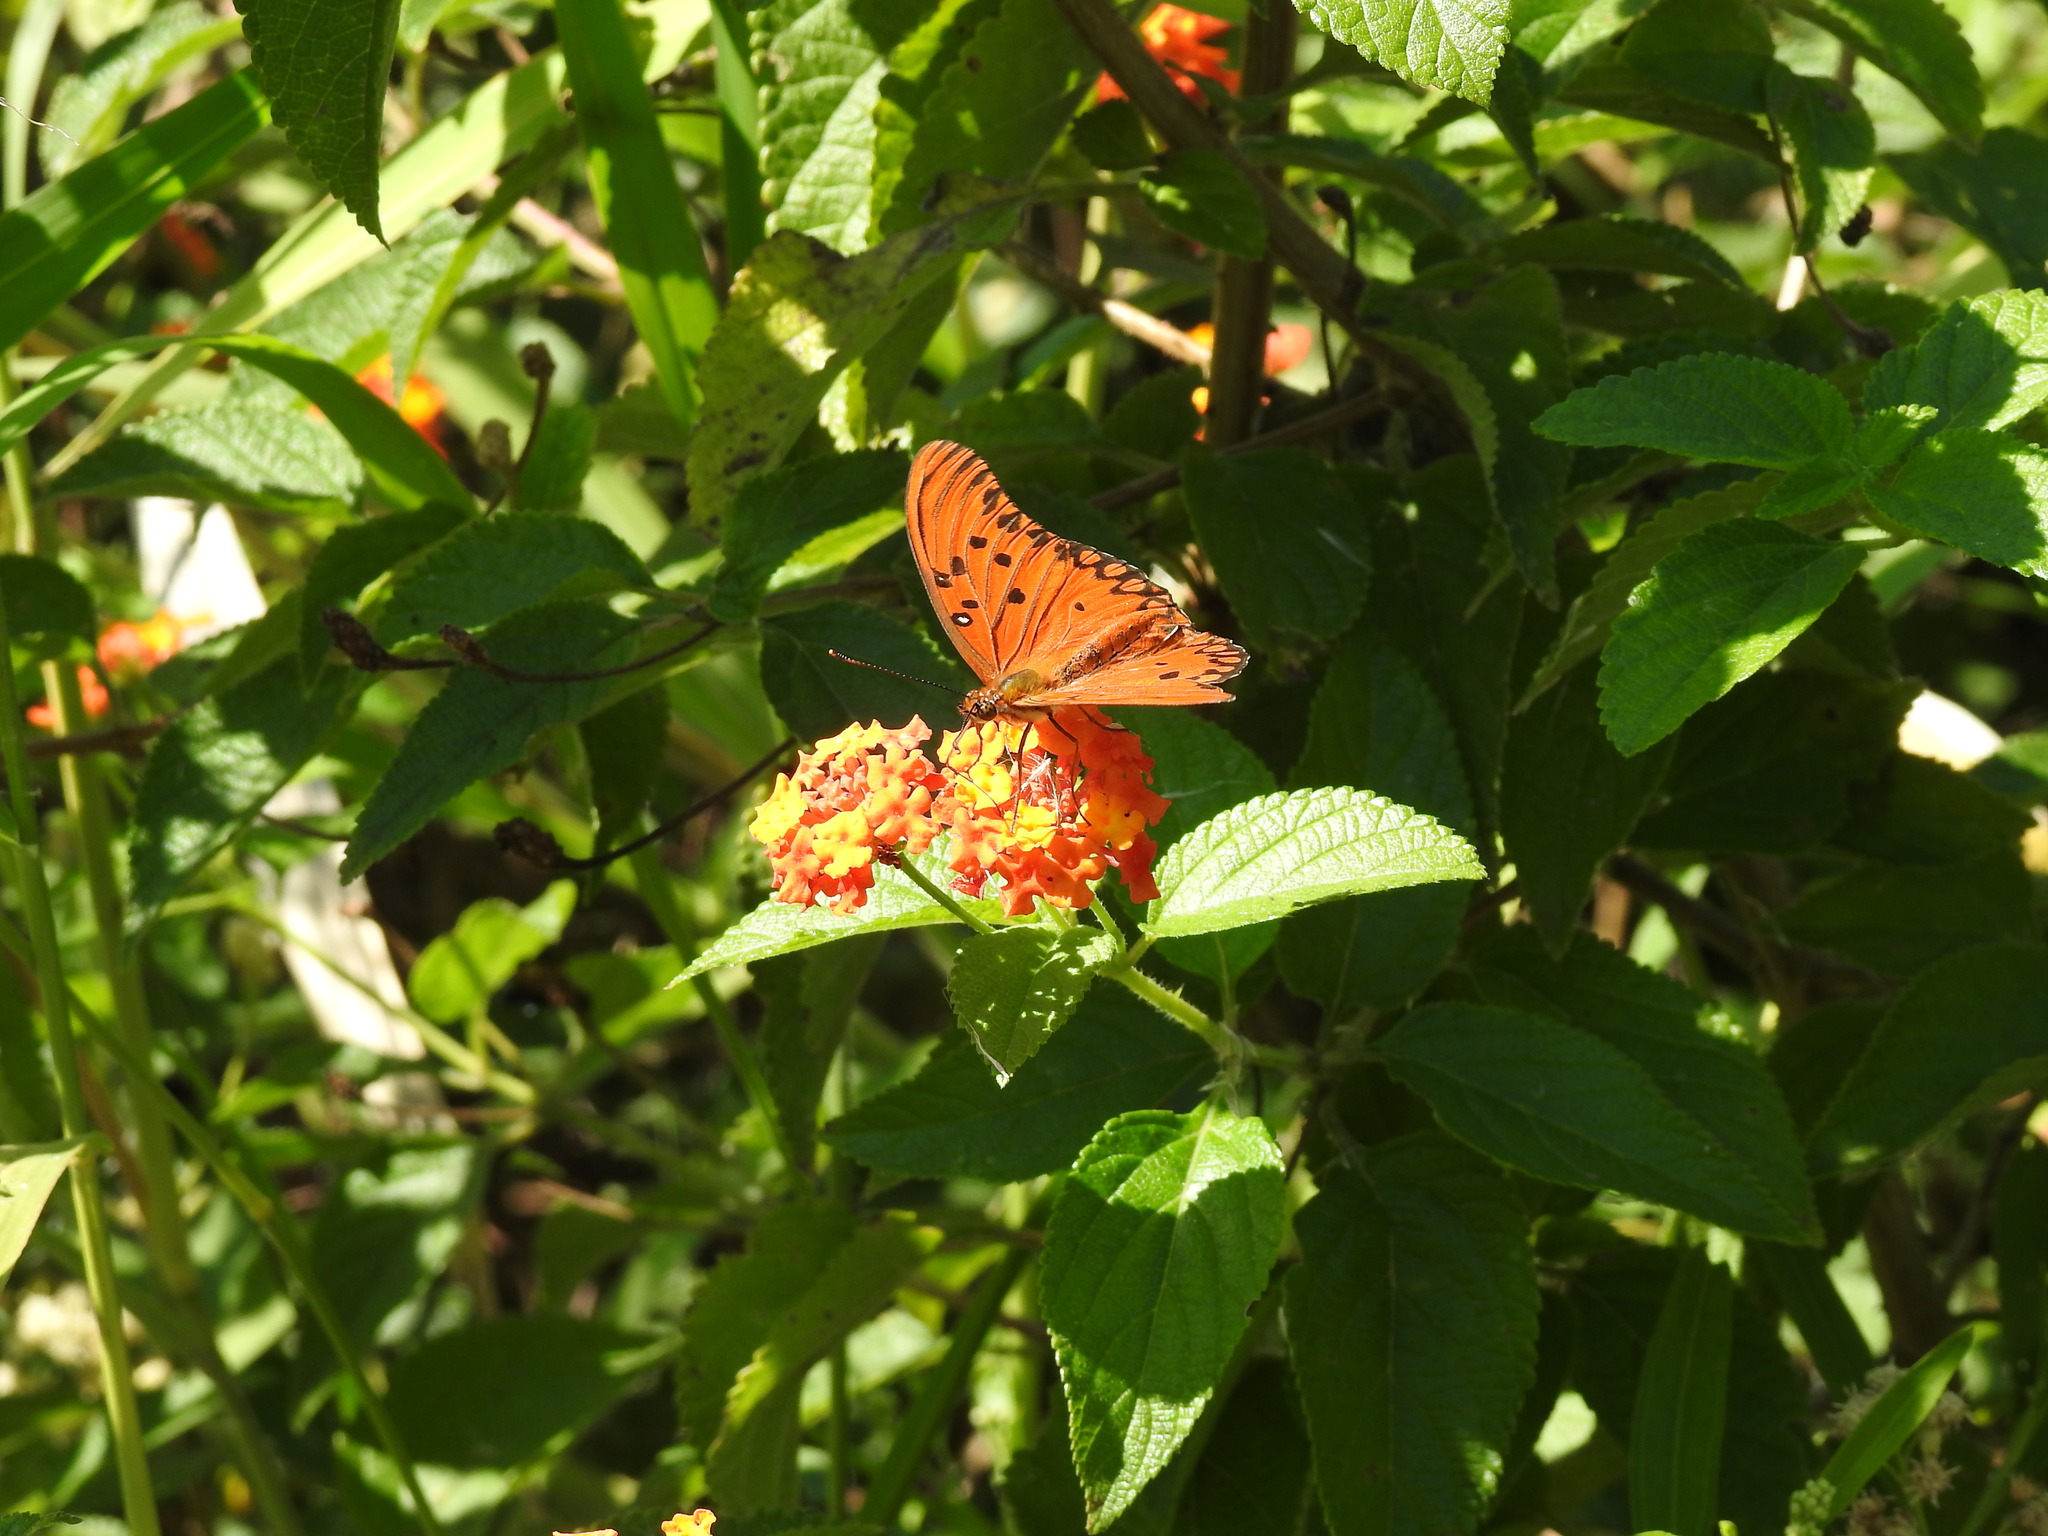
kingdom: Animalia
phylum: Arthropoda
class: Insecta
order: Lepidoptera
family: Nymphalidae
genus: Dione
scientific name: Dione vanillae
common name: Gulf fritillary
